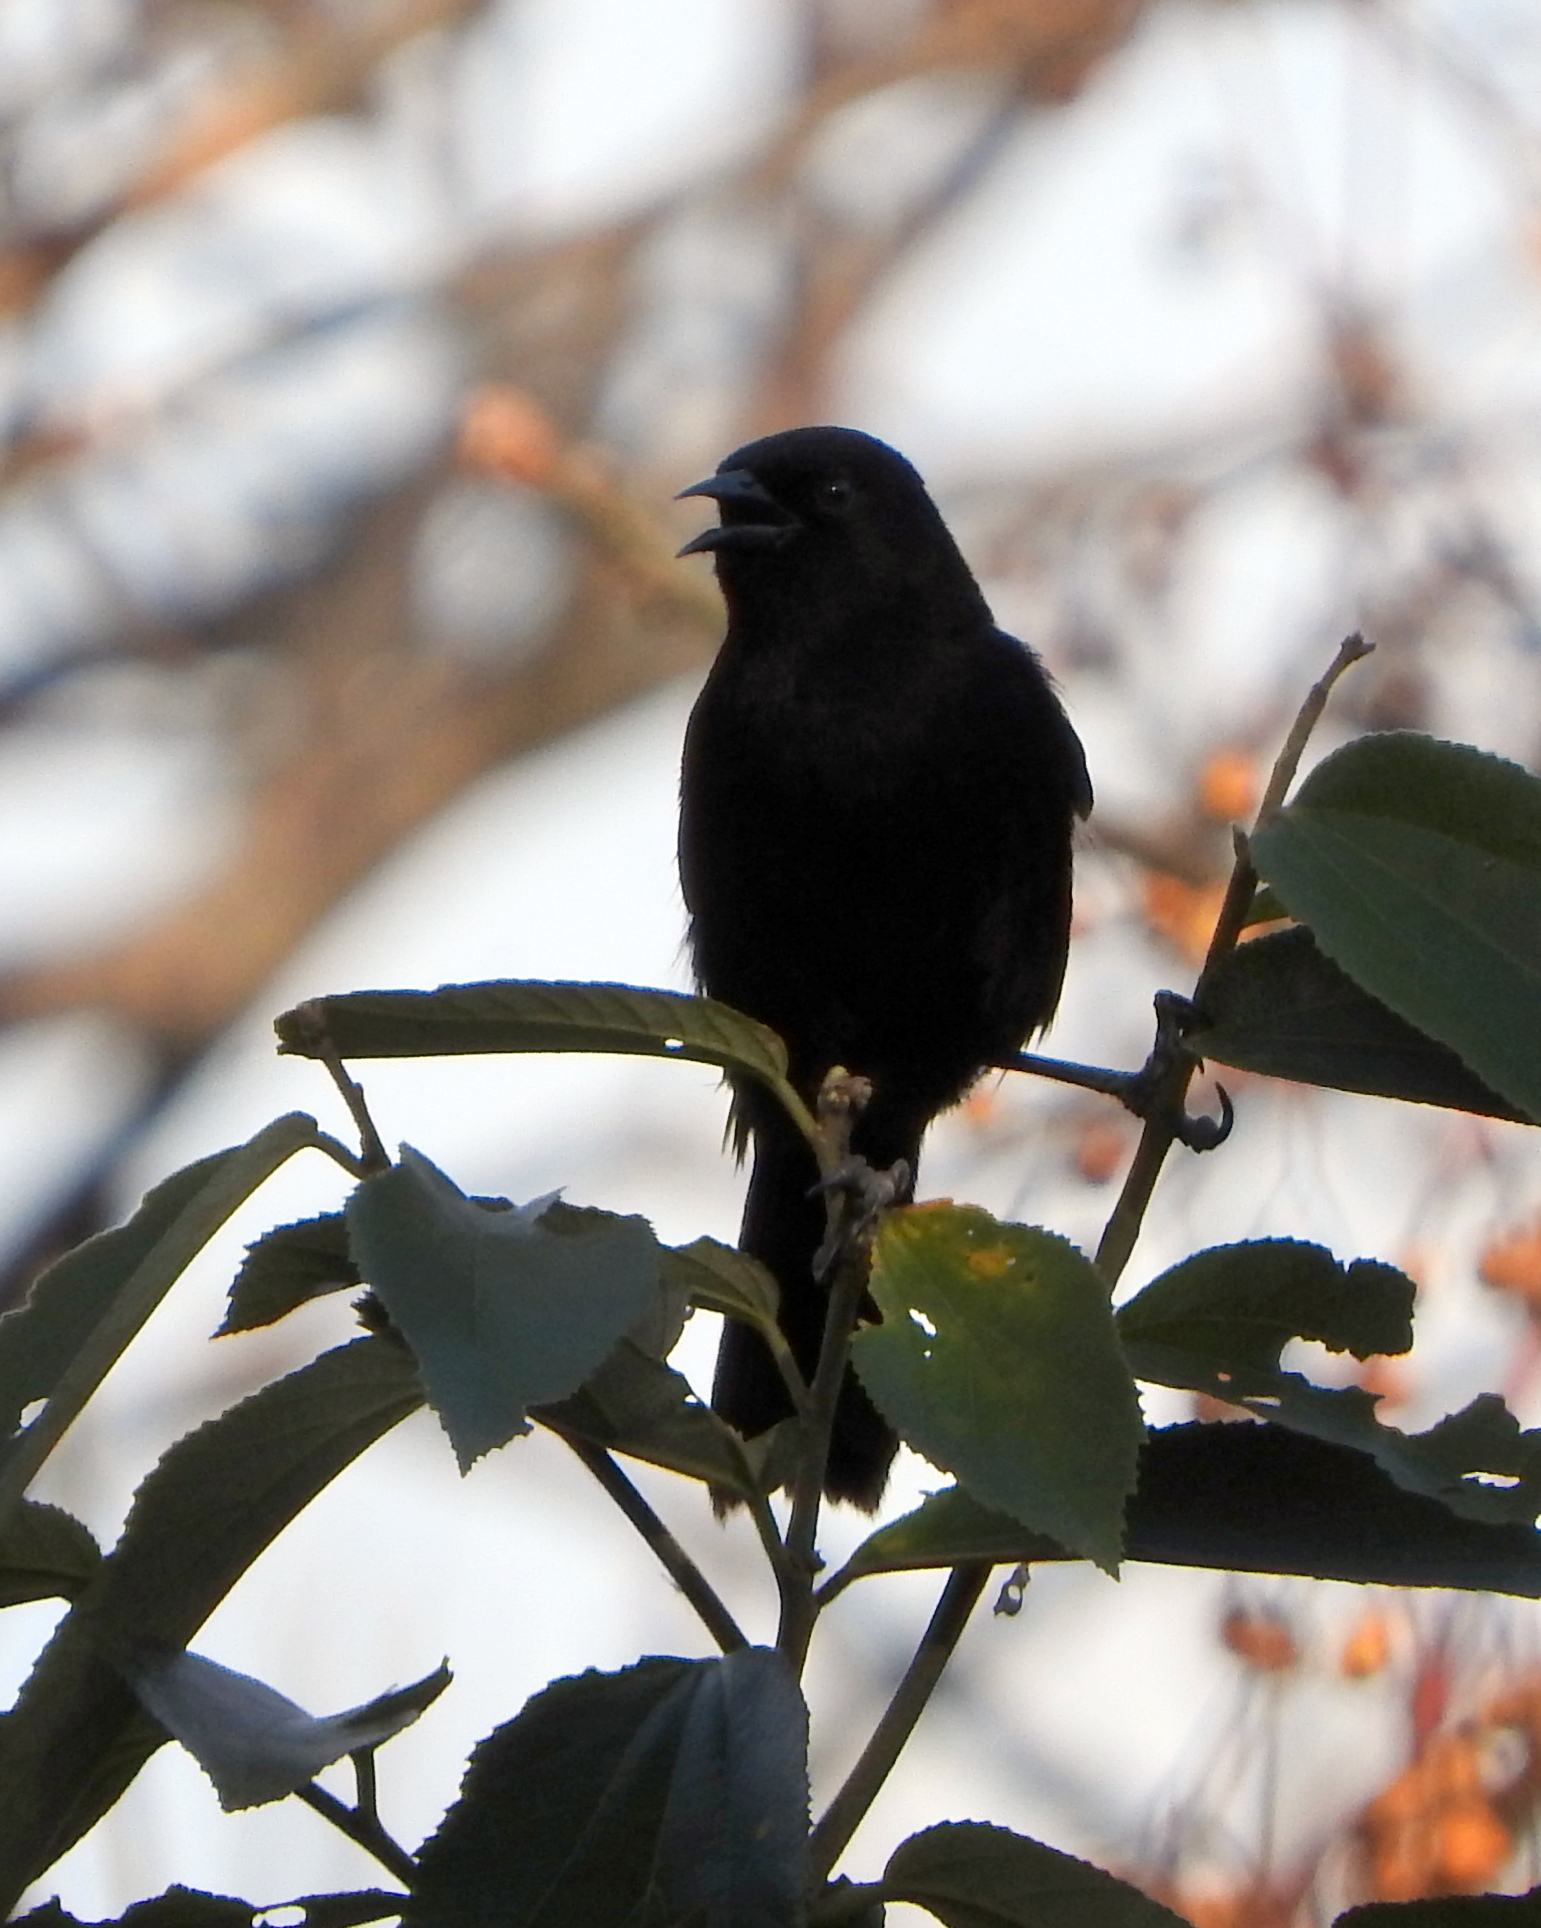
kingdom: Animalia
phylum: Chordata
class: Aves
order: Passeriformes
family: Icteridae
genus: Icterus
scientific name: Icterus cayanensis
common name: Epaulet oriole
